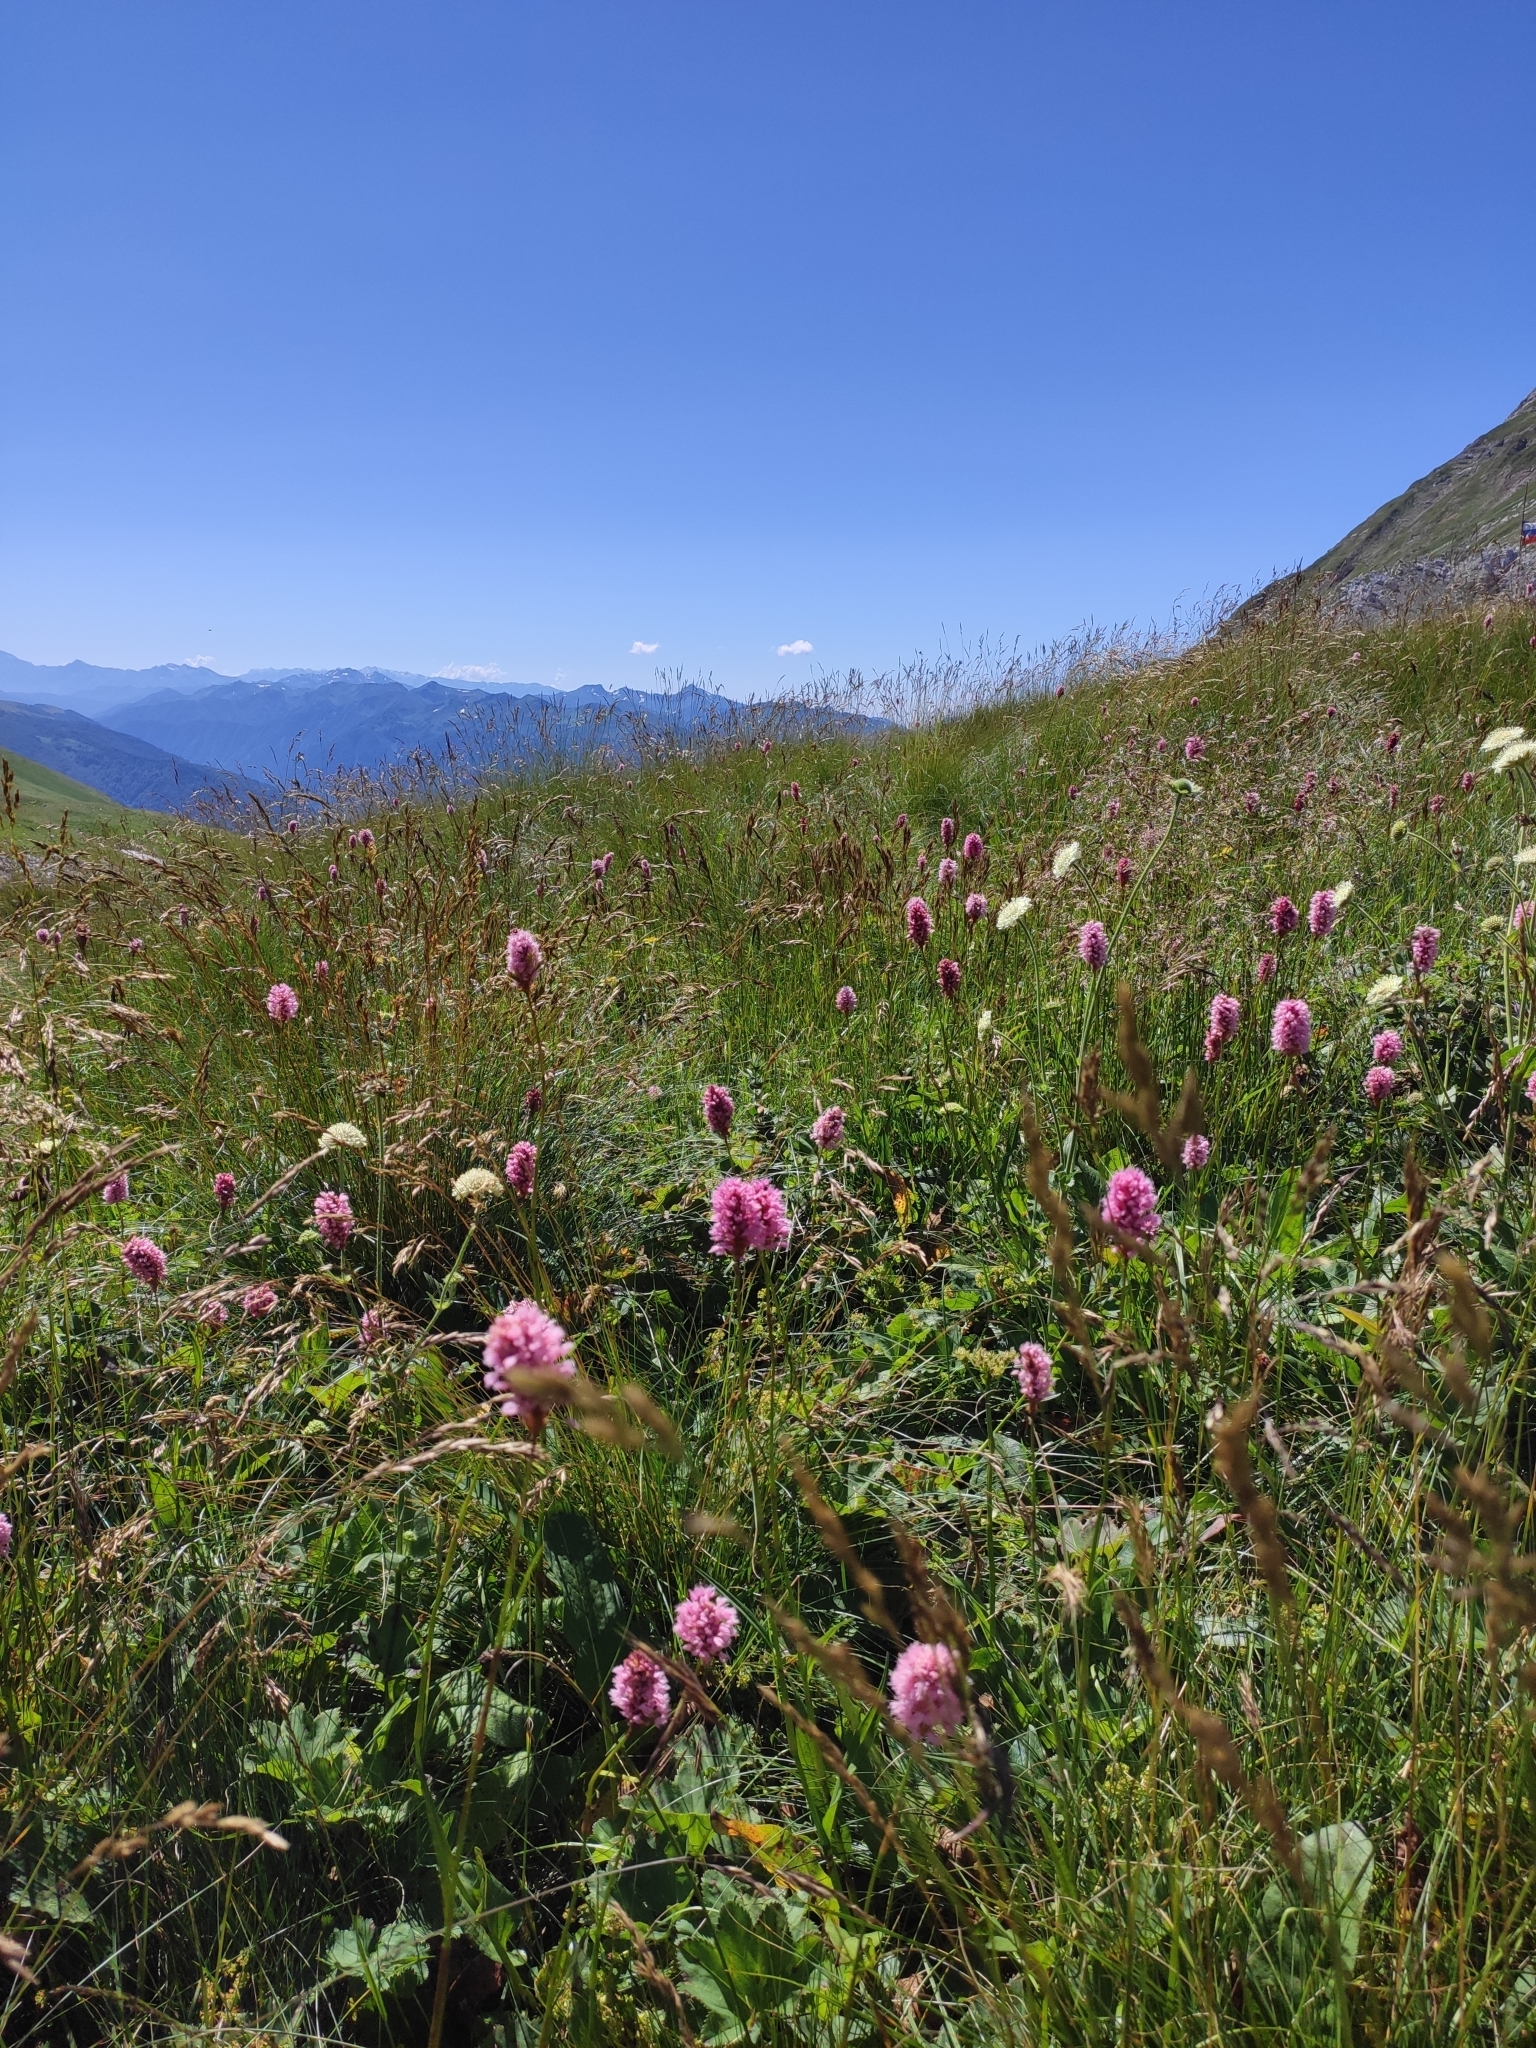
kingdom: Plantae
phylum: Tracheophyta
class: Magnoliopsida
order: Caryophyllales
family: Polygonaceae
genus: Bistorta
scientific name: Bistorta carnea
